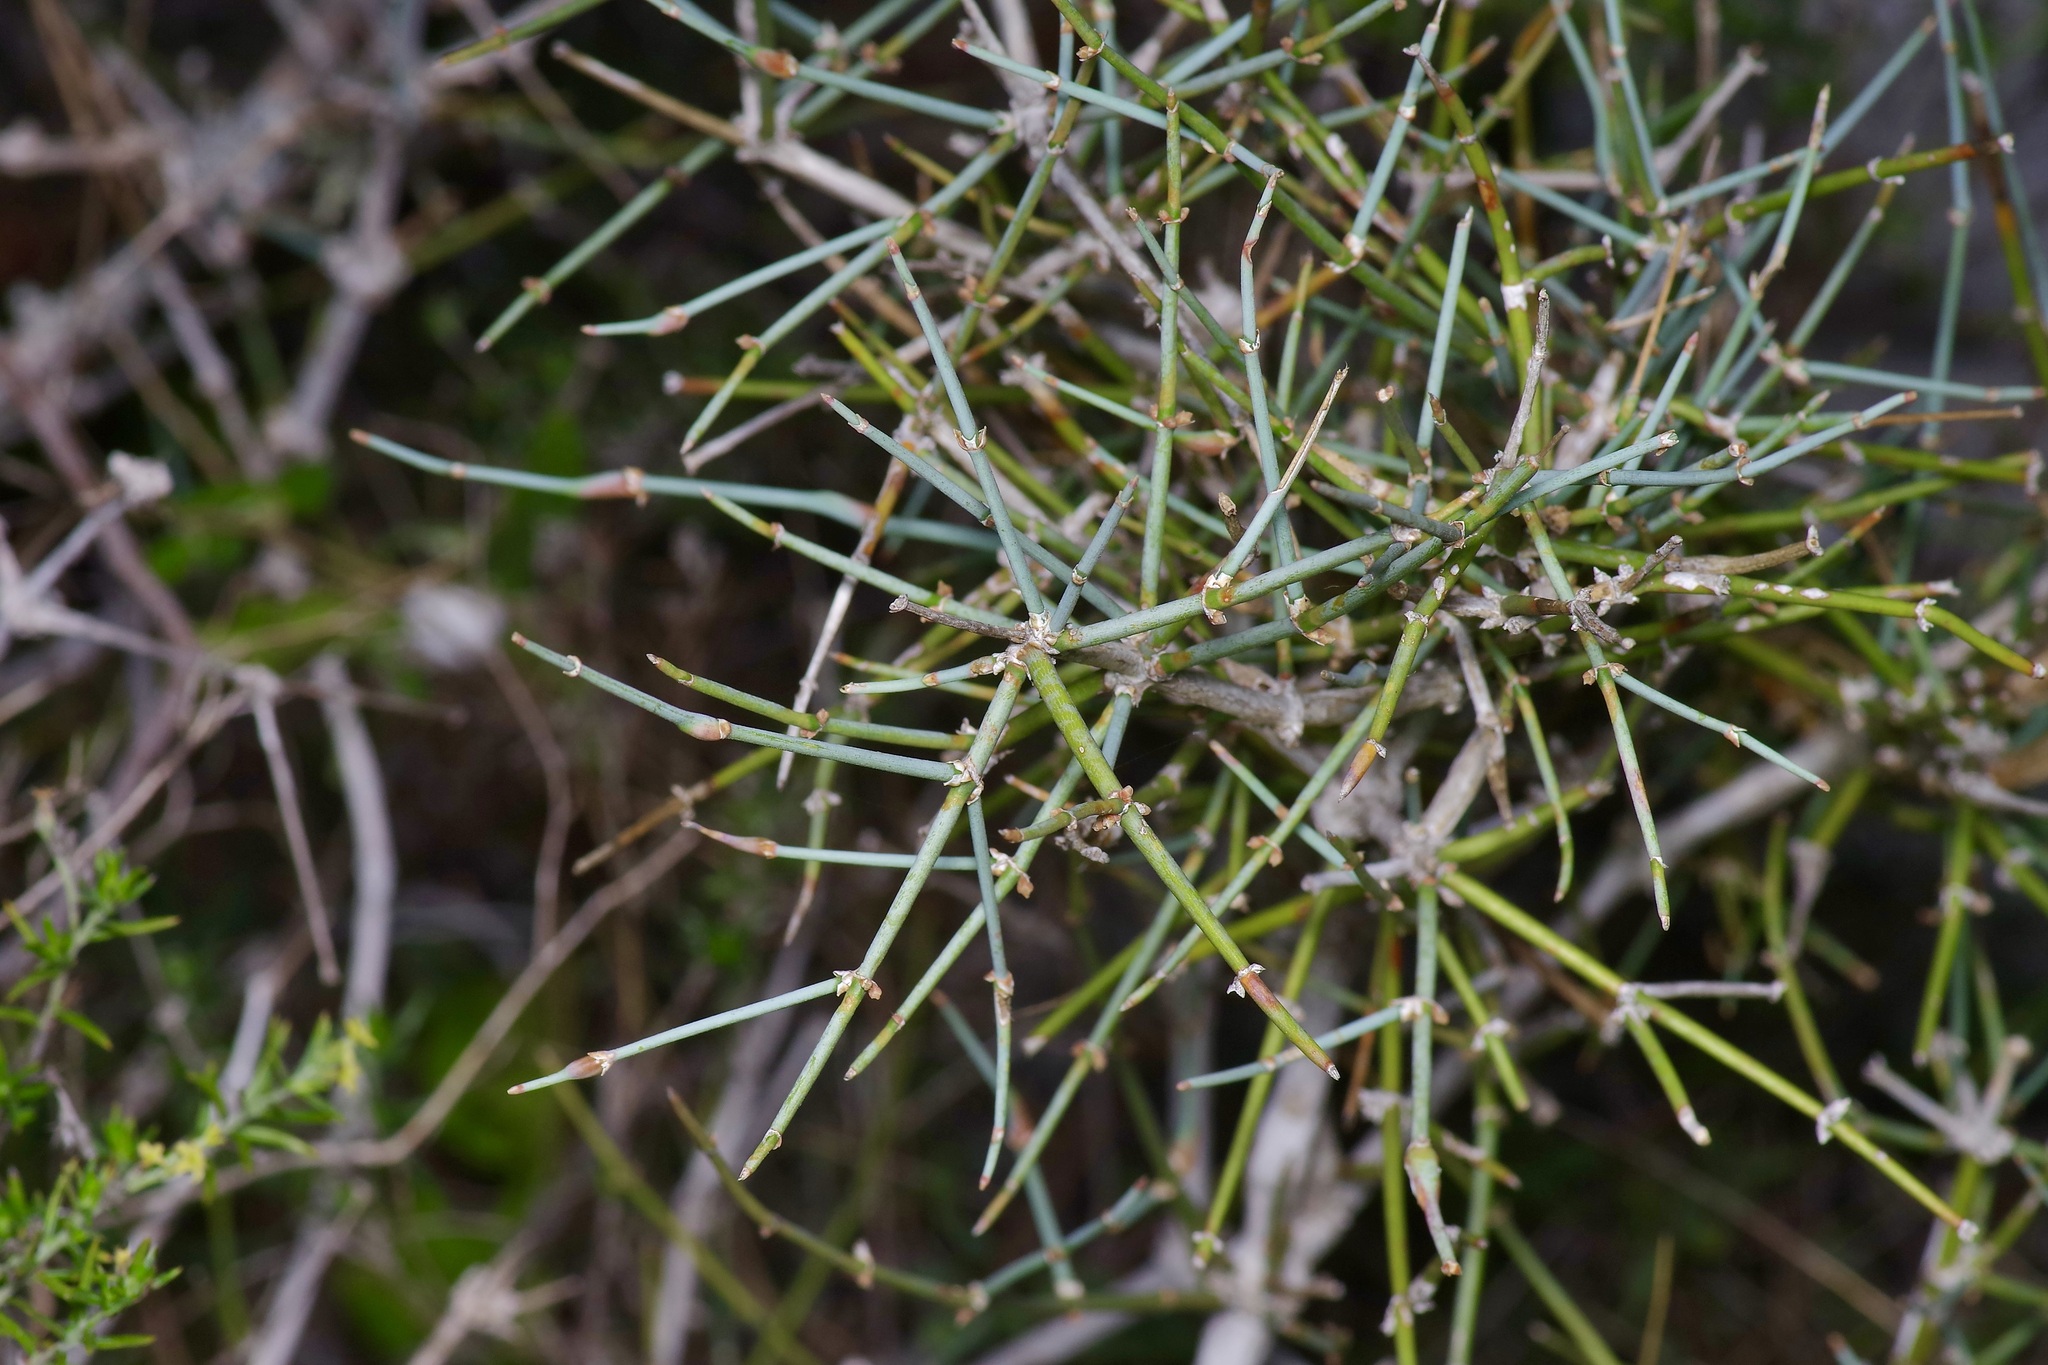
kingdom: Plantae
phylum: Tracheophyta
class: Gnetopsida
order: Ephedrales
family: Ephedraceae
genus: Ephedra
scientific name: Ephedra antisyphilitica
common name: Clipweed
